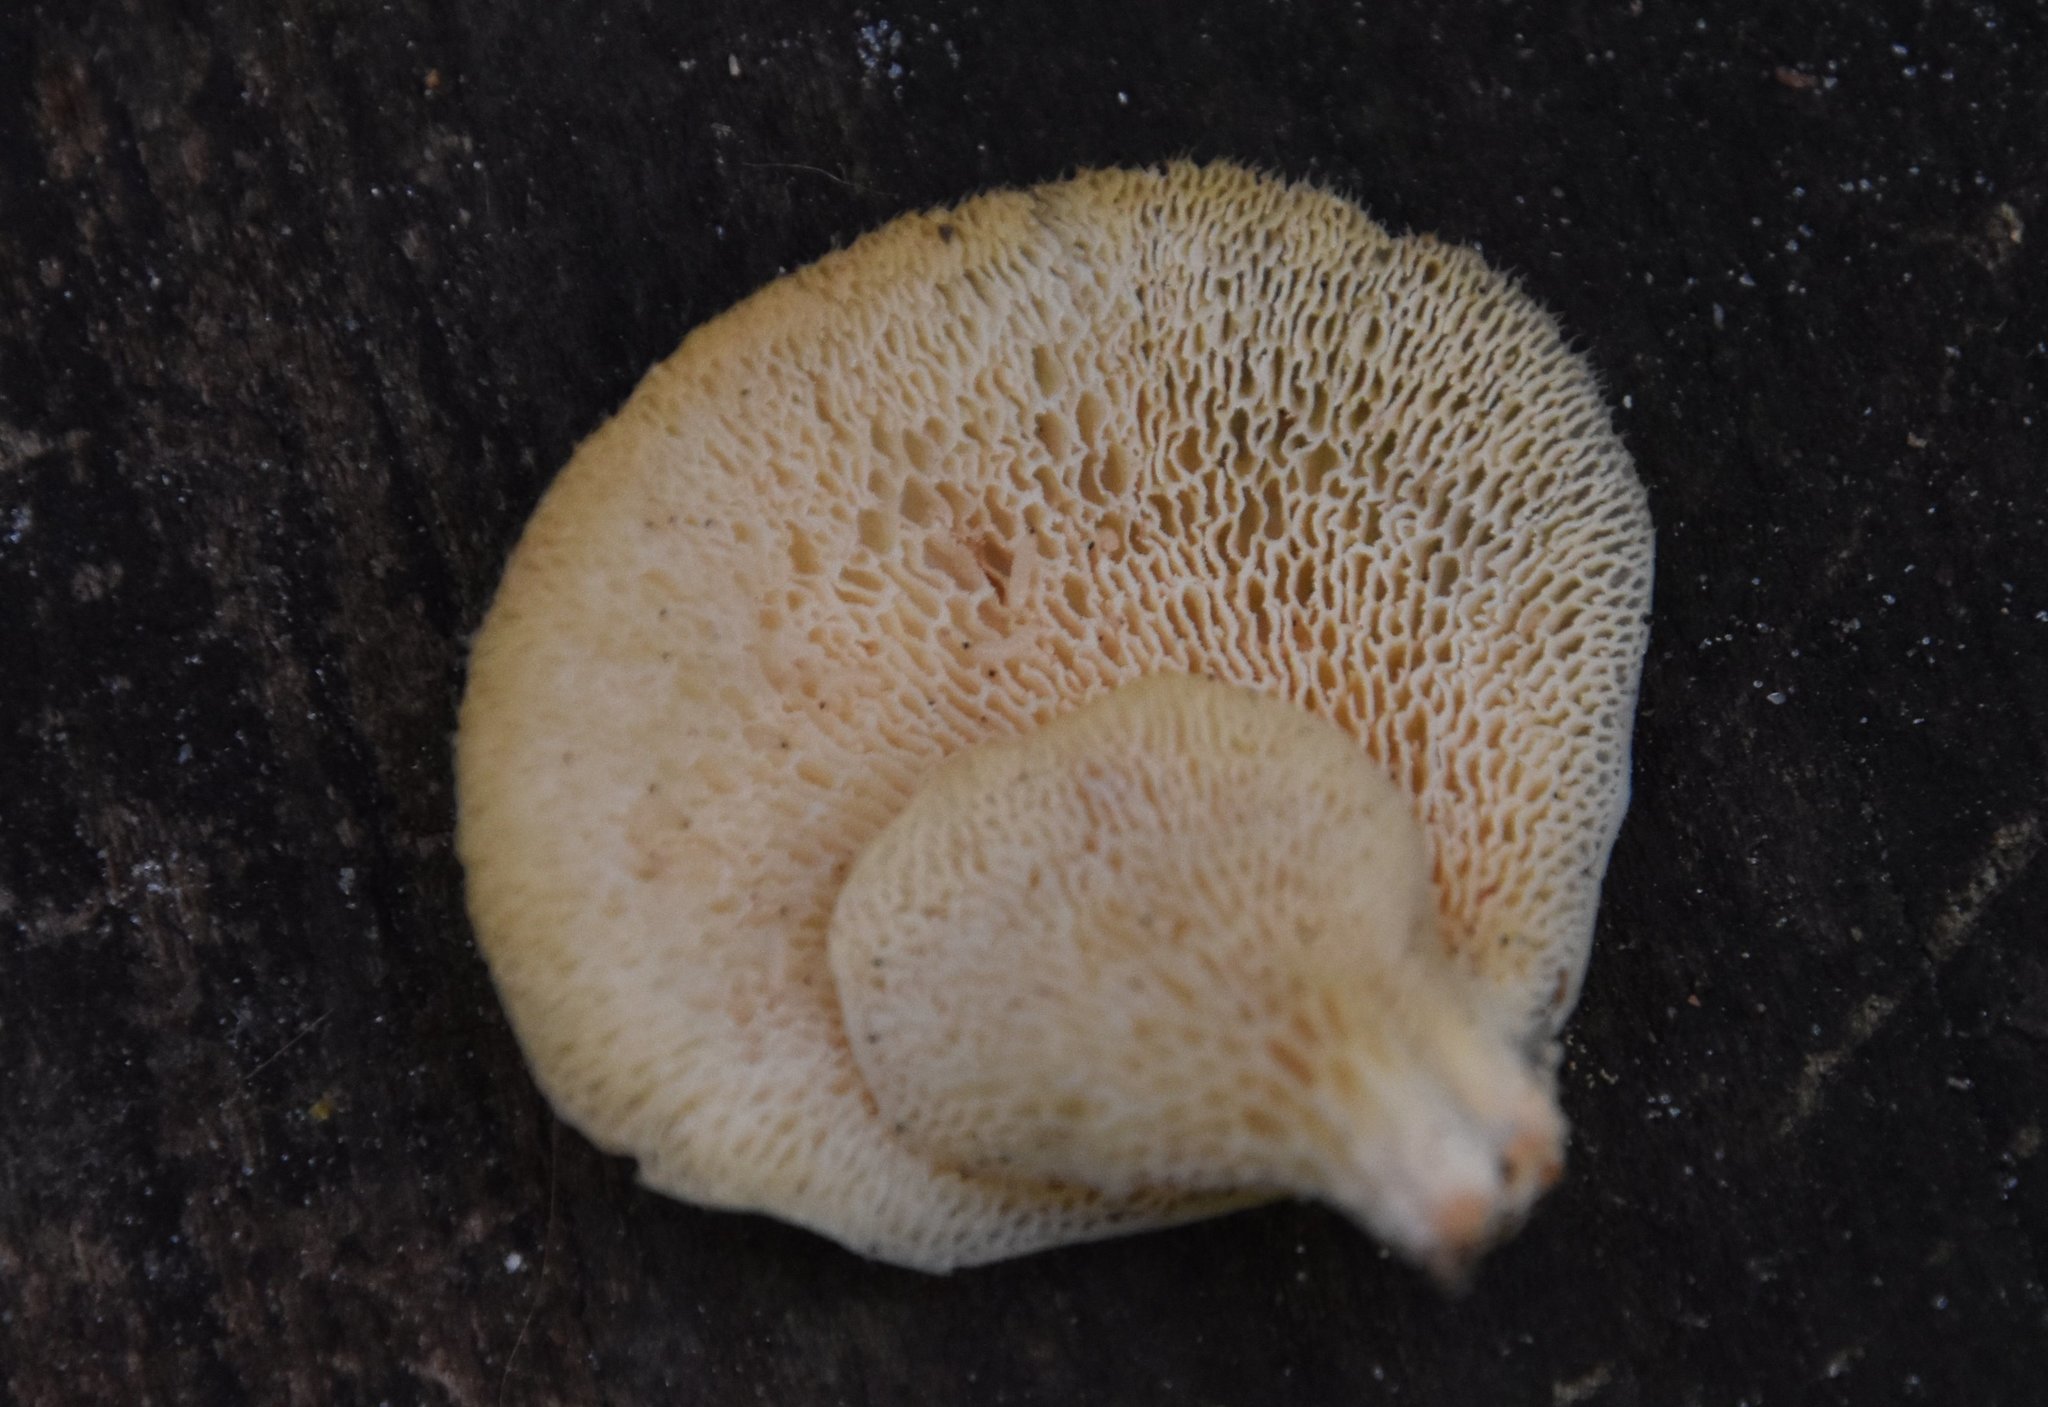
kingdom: Fungi
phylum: Basidiomycota
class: Agaricomycetes
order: Polyporales
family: Polyporaceae
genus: Favolus
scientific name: Favolus tenuiculus
